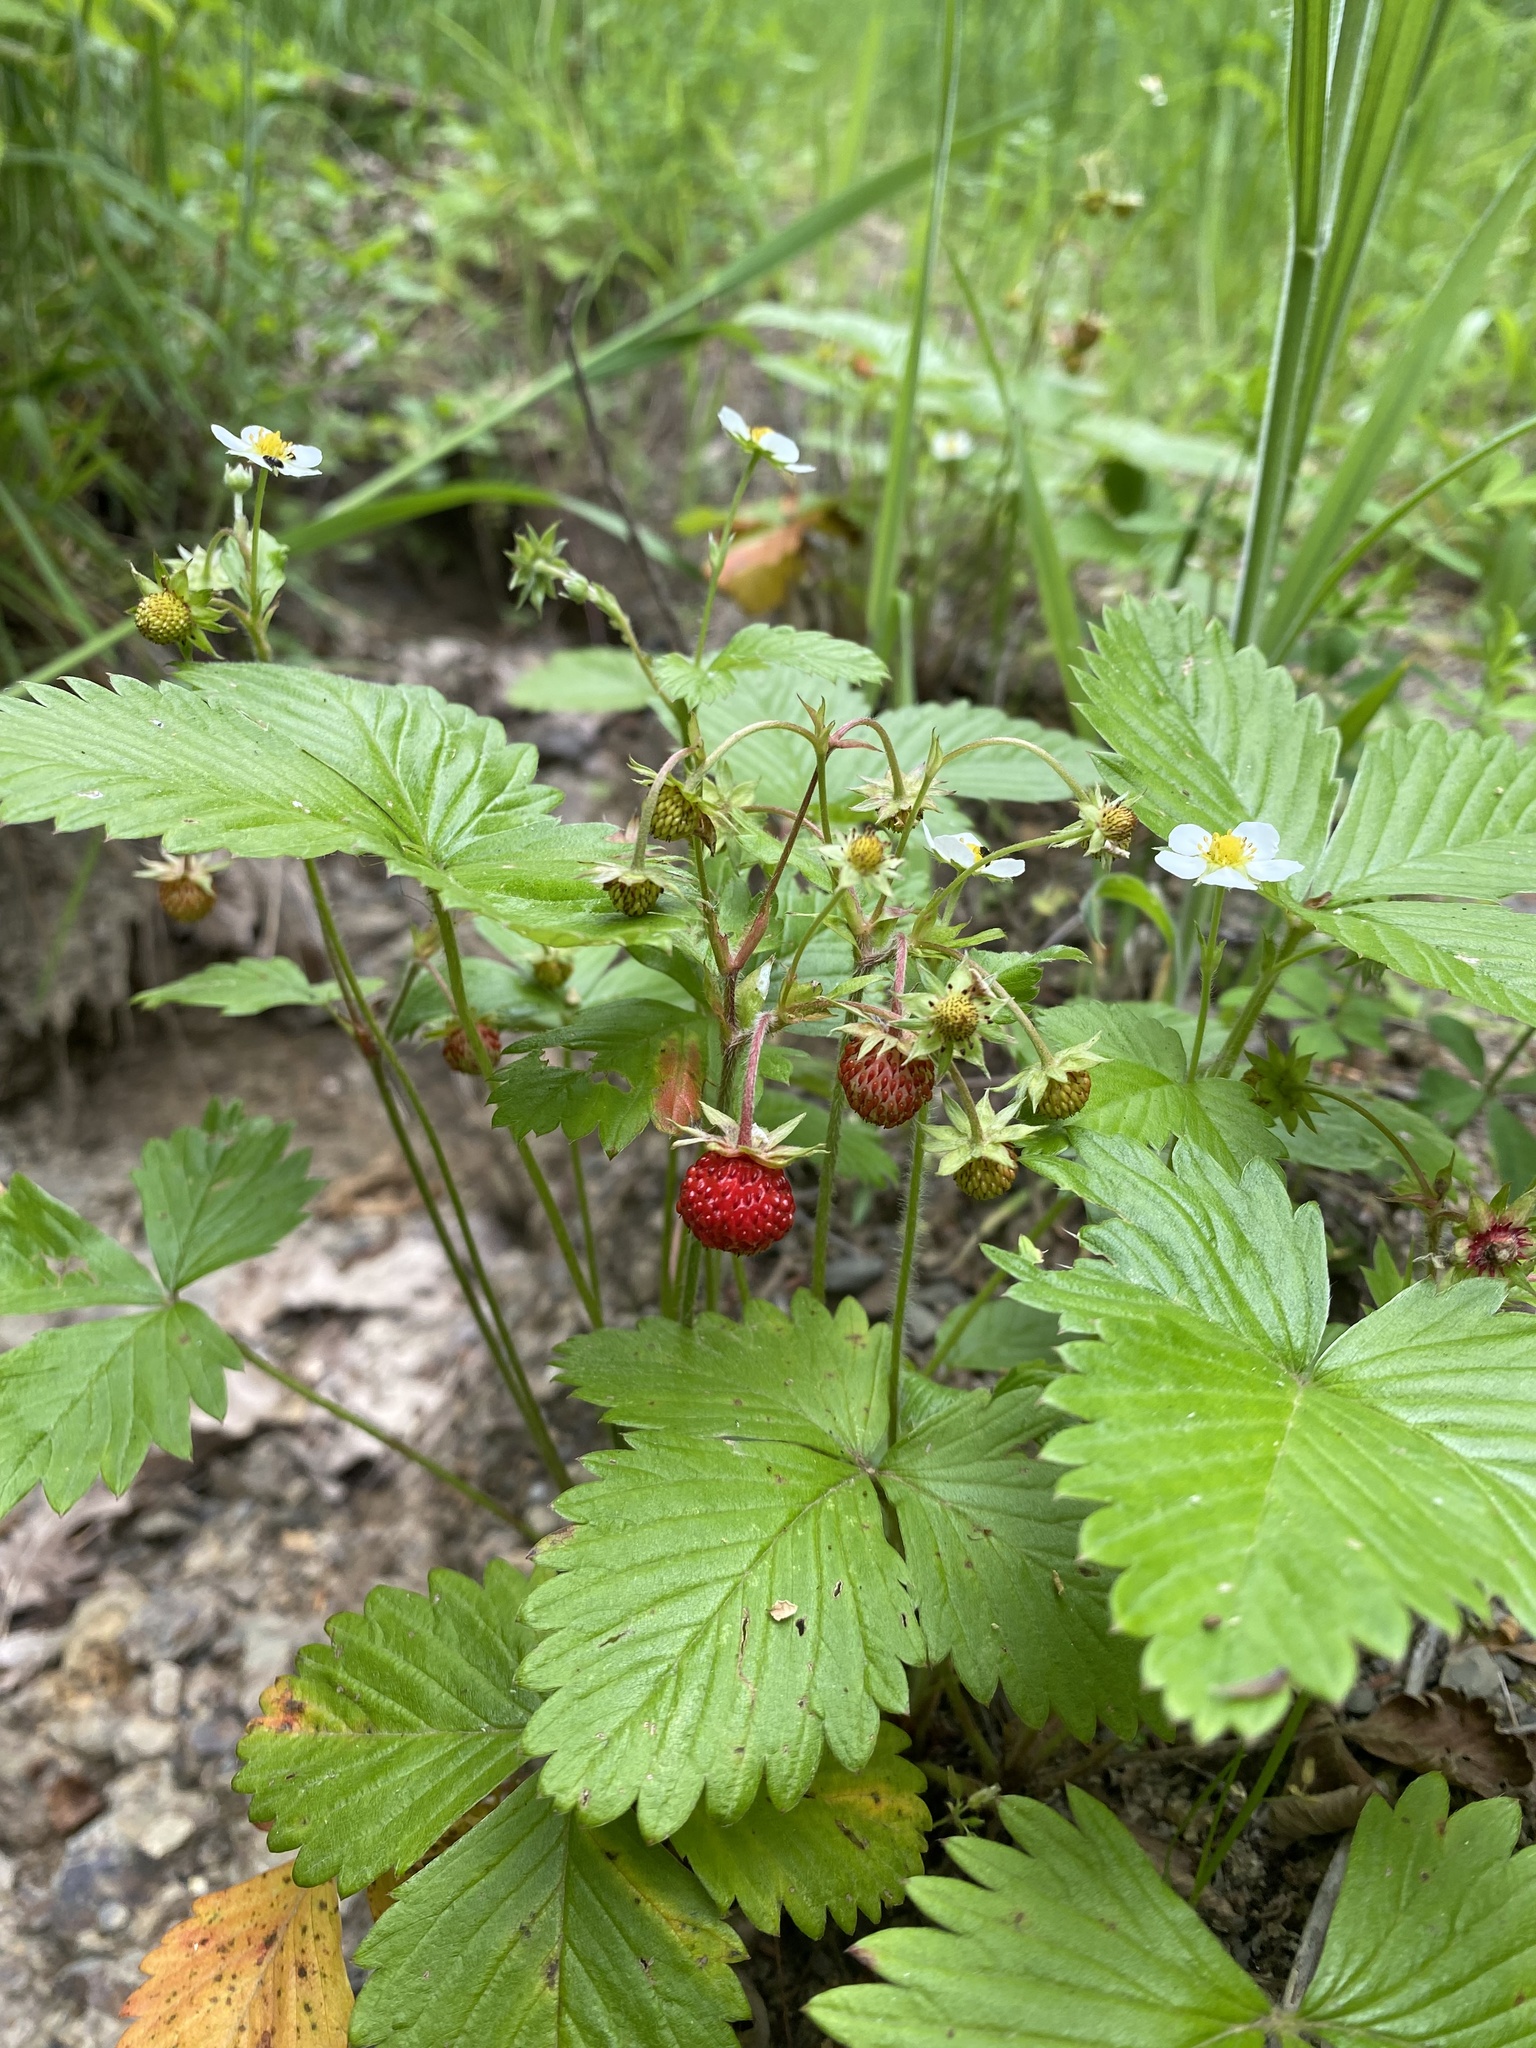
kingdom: Plantae
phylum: Tracheophyta
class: Magnoliopsida
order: Rosales
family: Rosaceae
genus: Fragaria
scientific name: Fragaria vesca
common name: Wild strawberry
